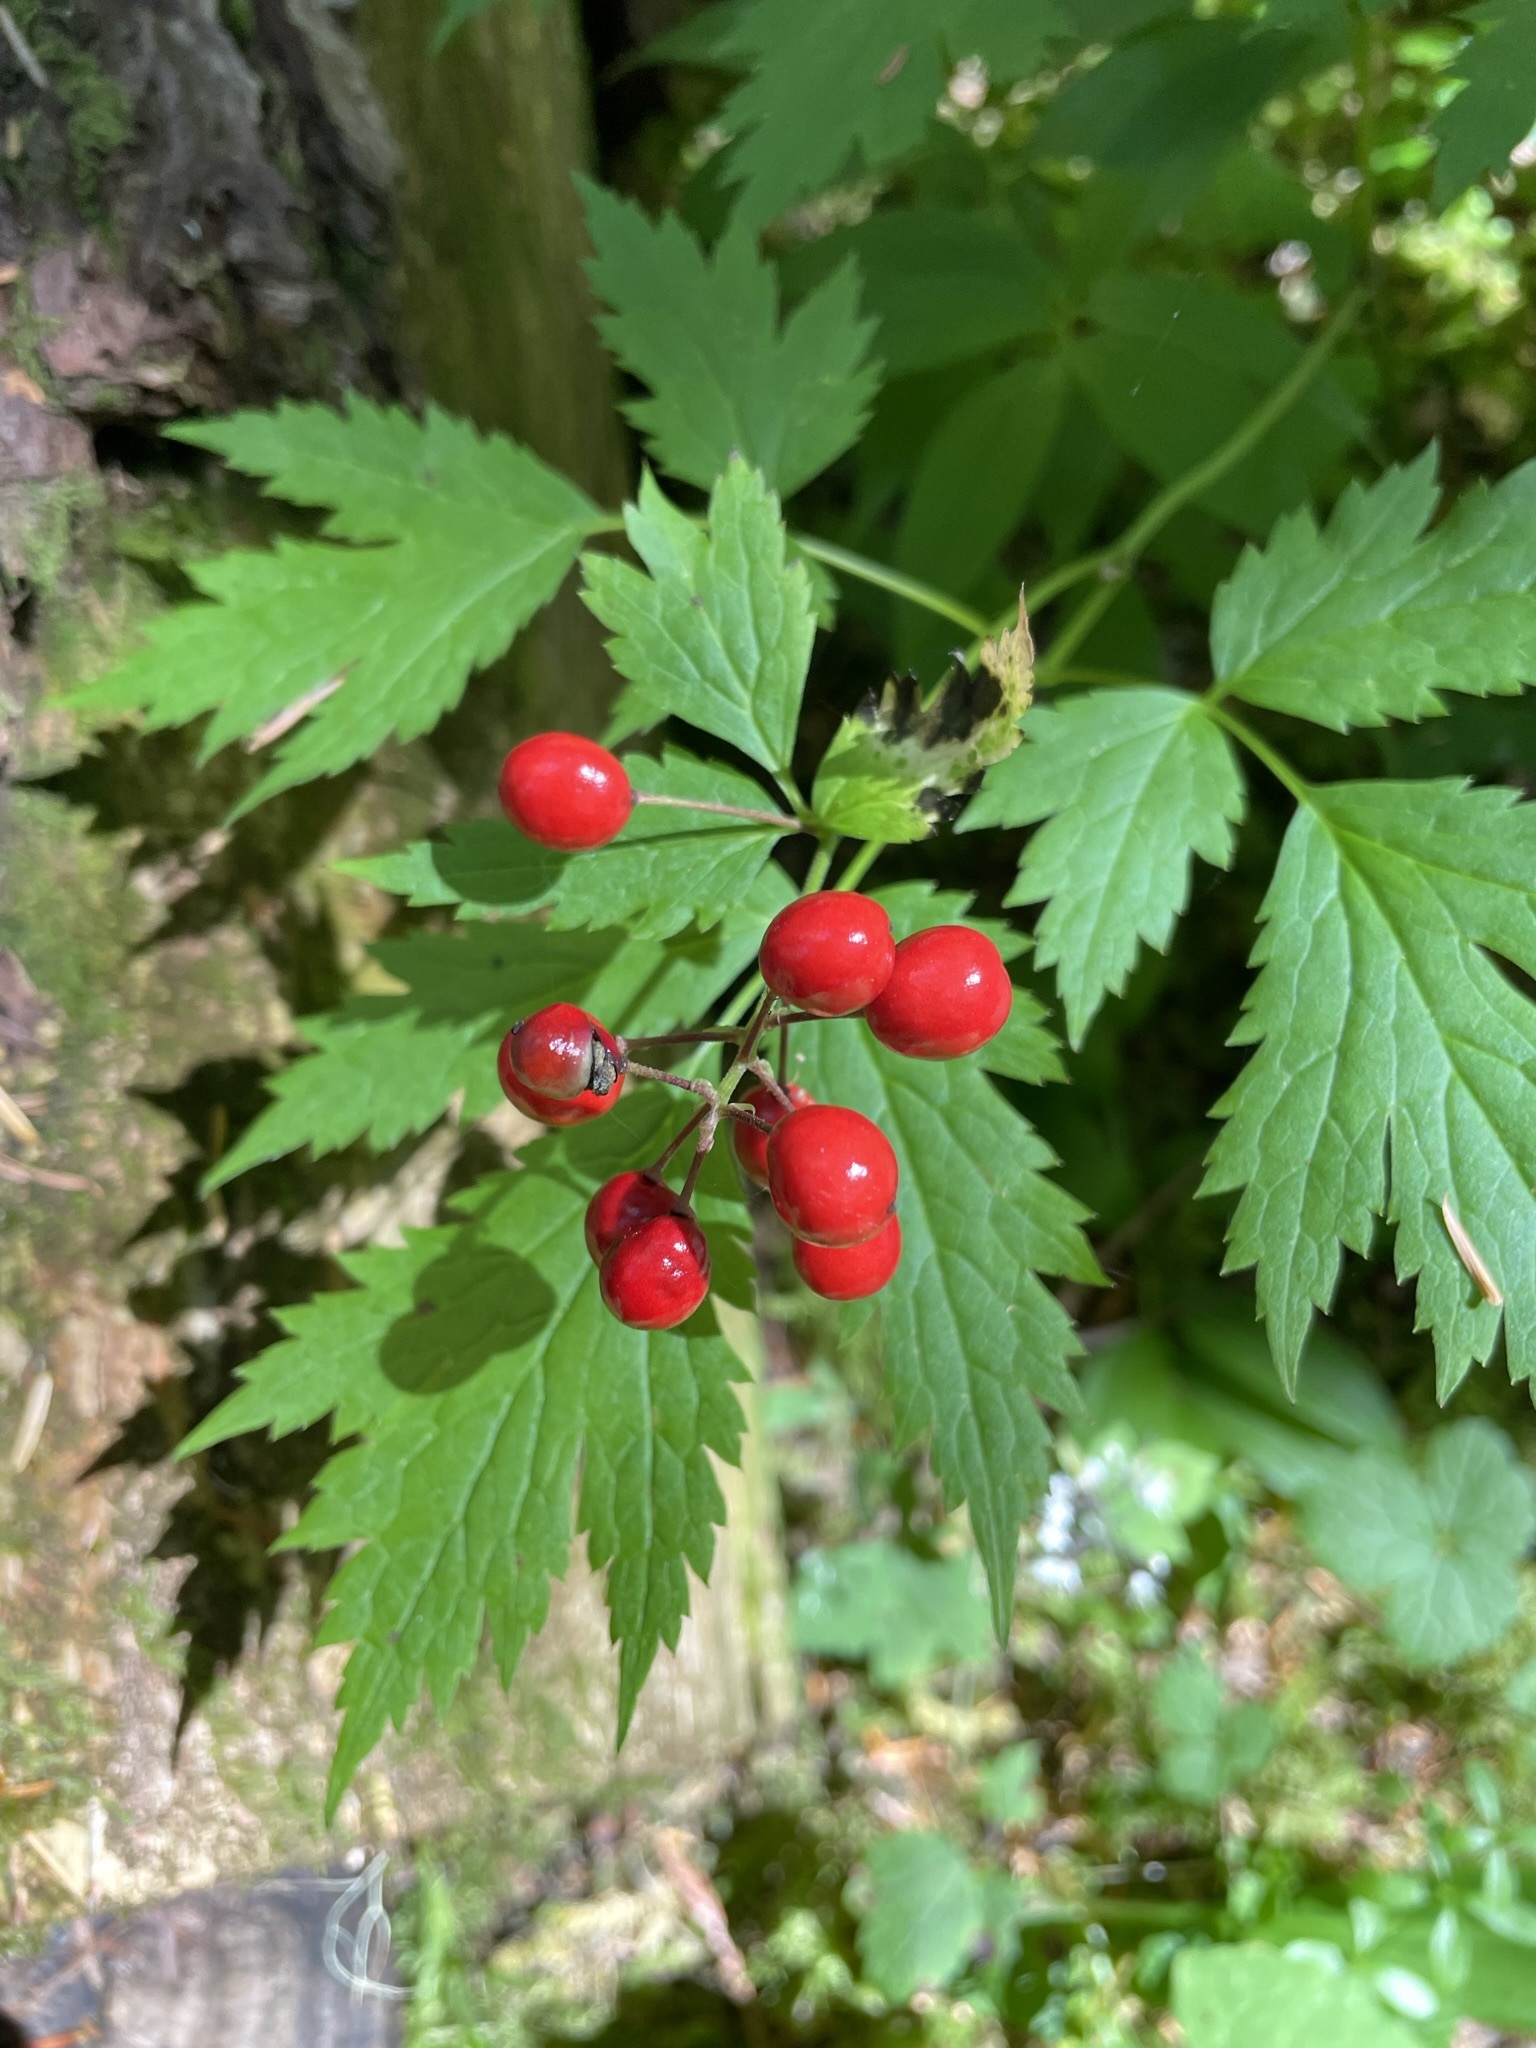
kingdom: Plantae
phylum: Tracheophyta
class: Magnoliopsida
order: Ranunculales
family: Ranunculaceae
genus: Actaea
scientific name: Actaea rubra
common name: Red baneberry
